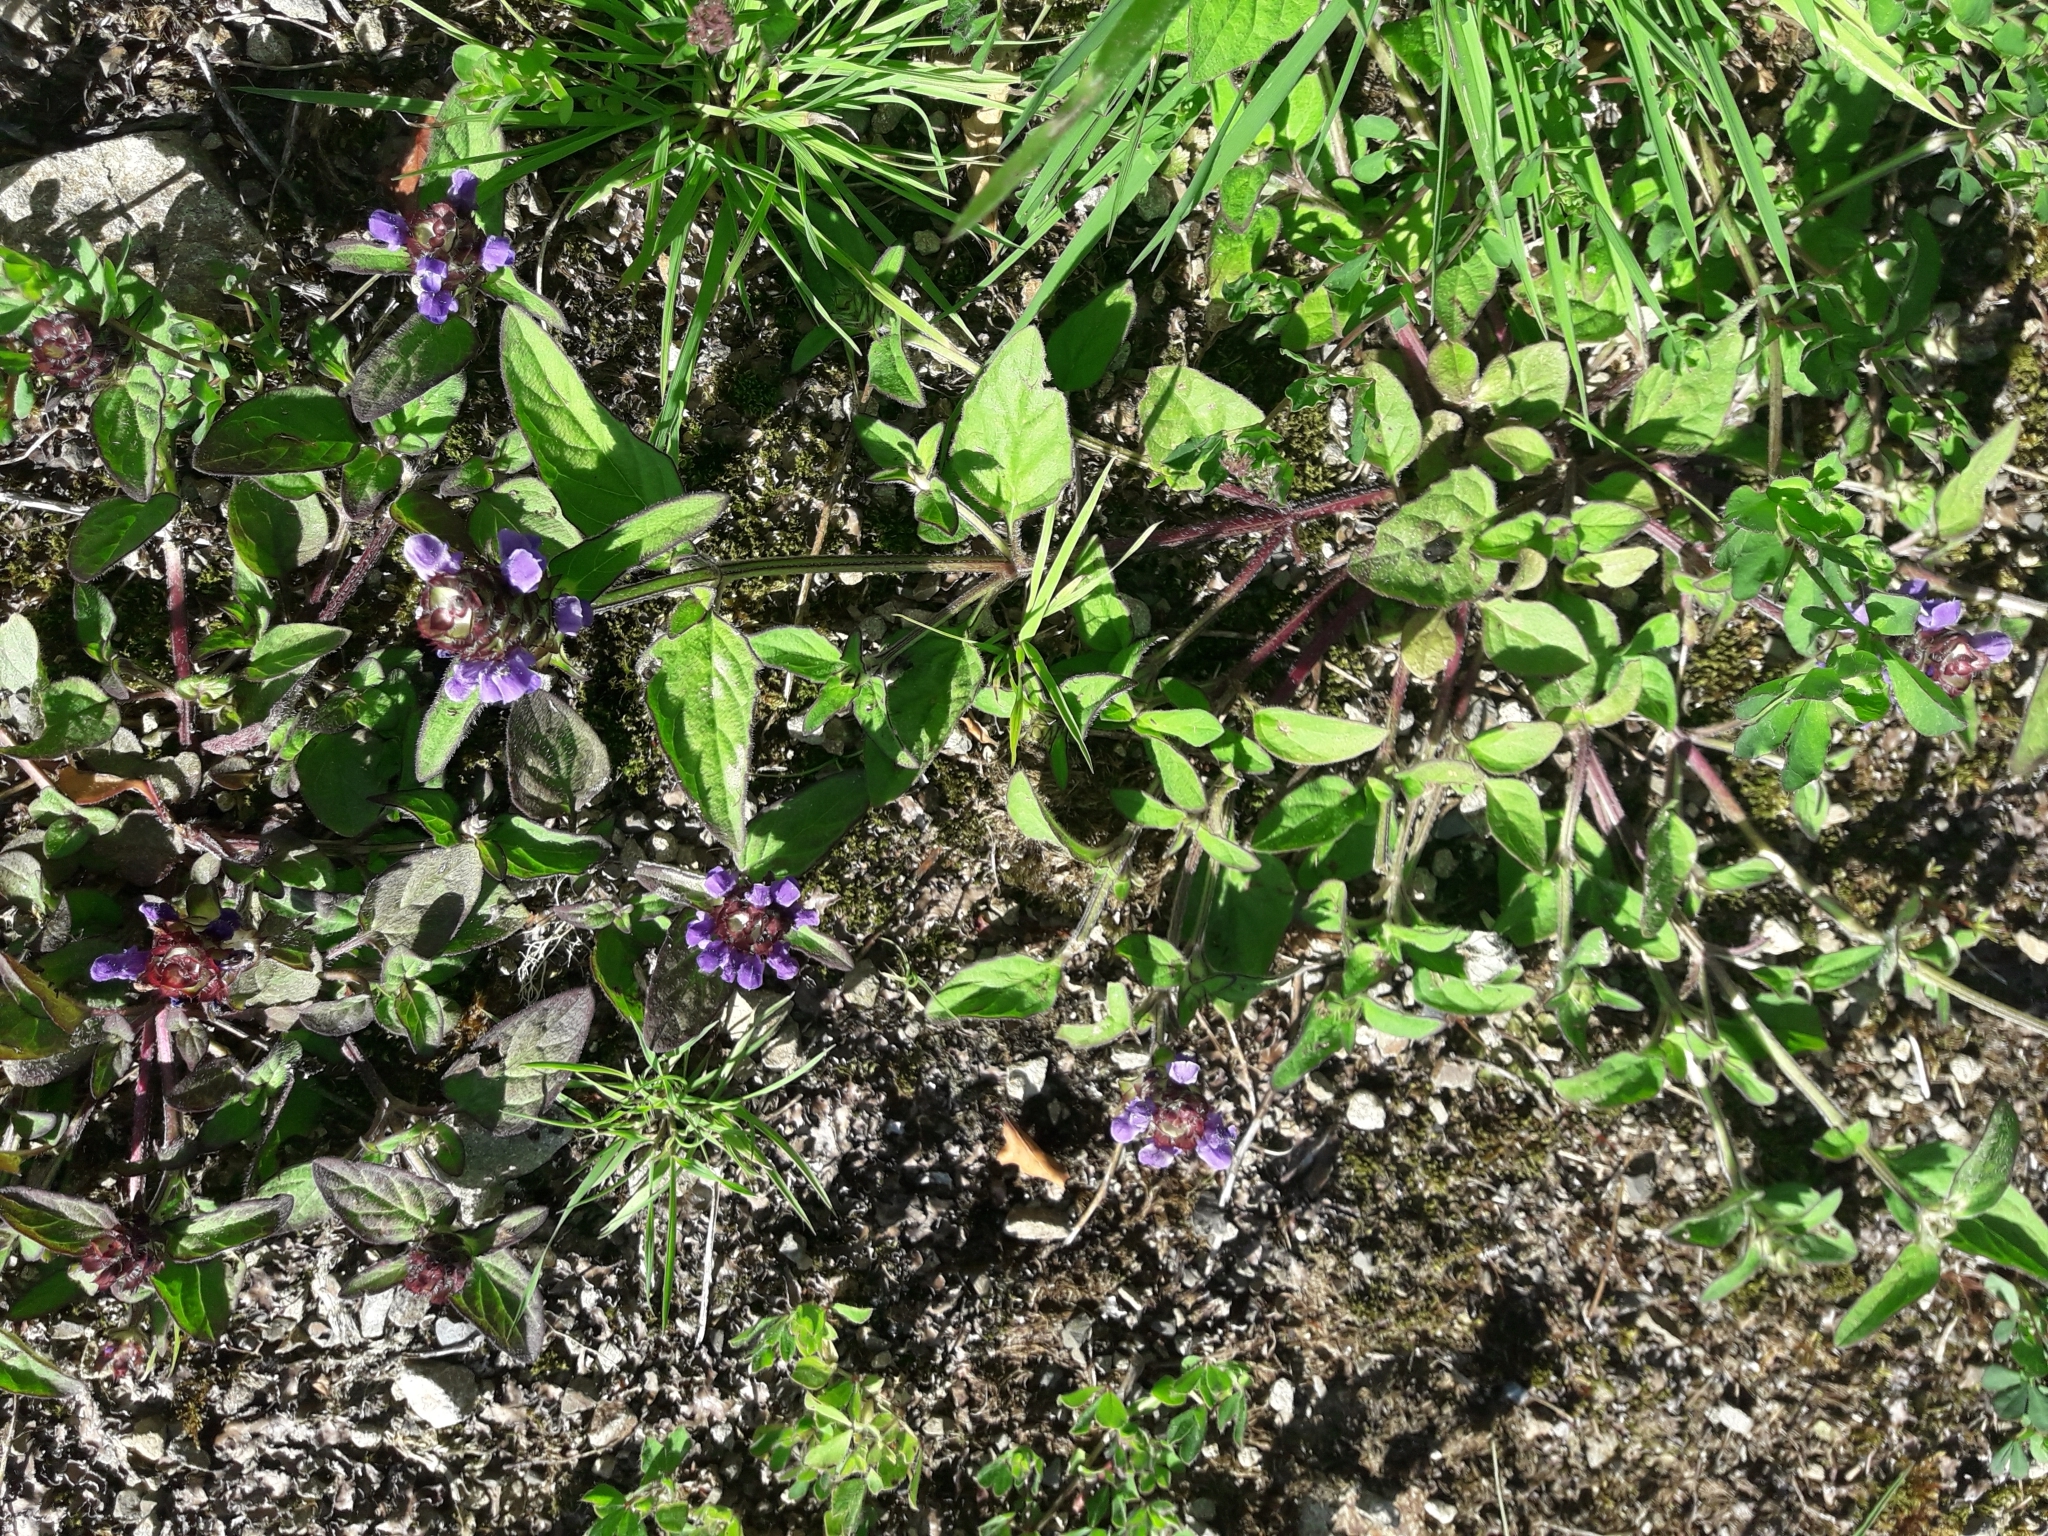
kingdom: Plantae
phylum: Tracheophyta
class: Magnoliopsida
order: Lamiales
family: Lamiaceae
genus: Prunella
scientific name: Prunella vulgaris
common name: Heal-all
